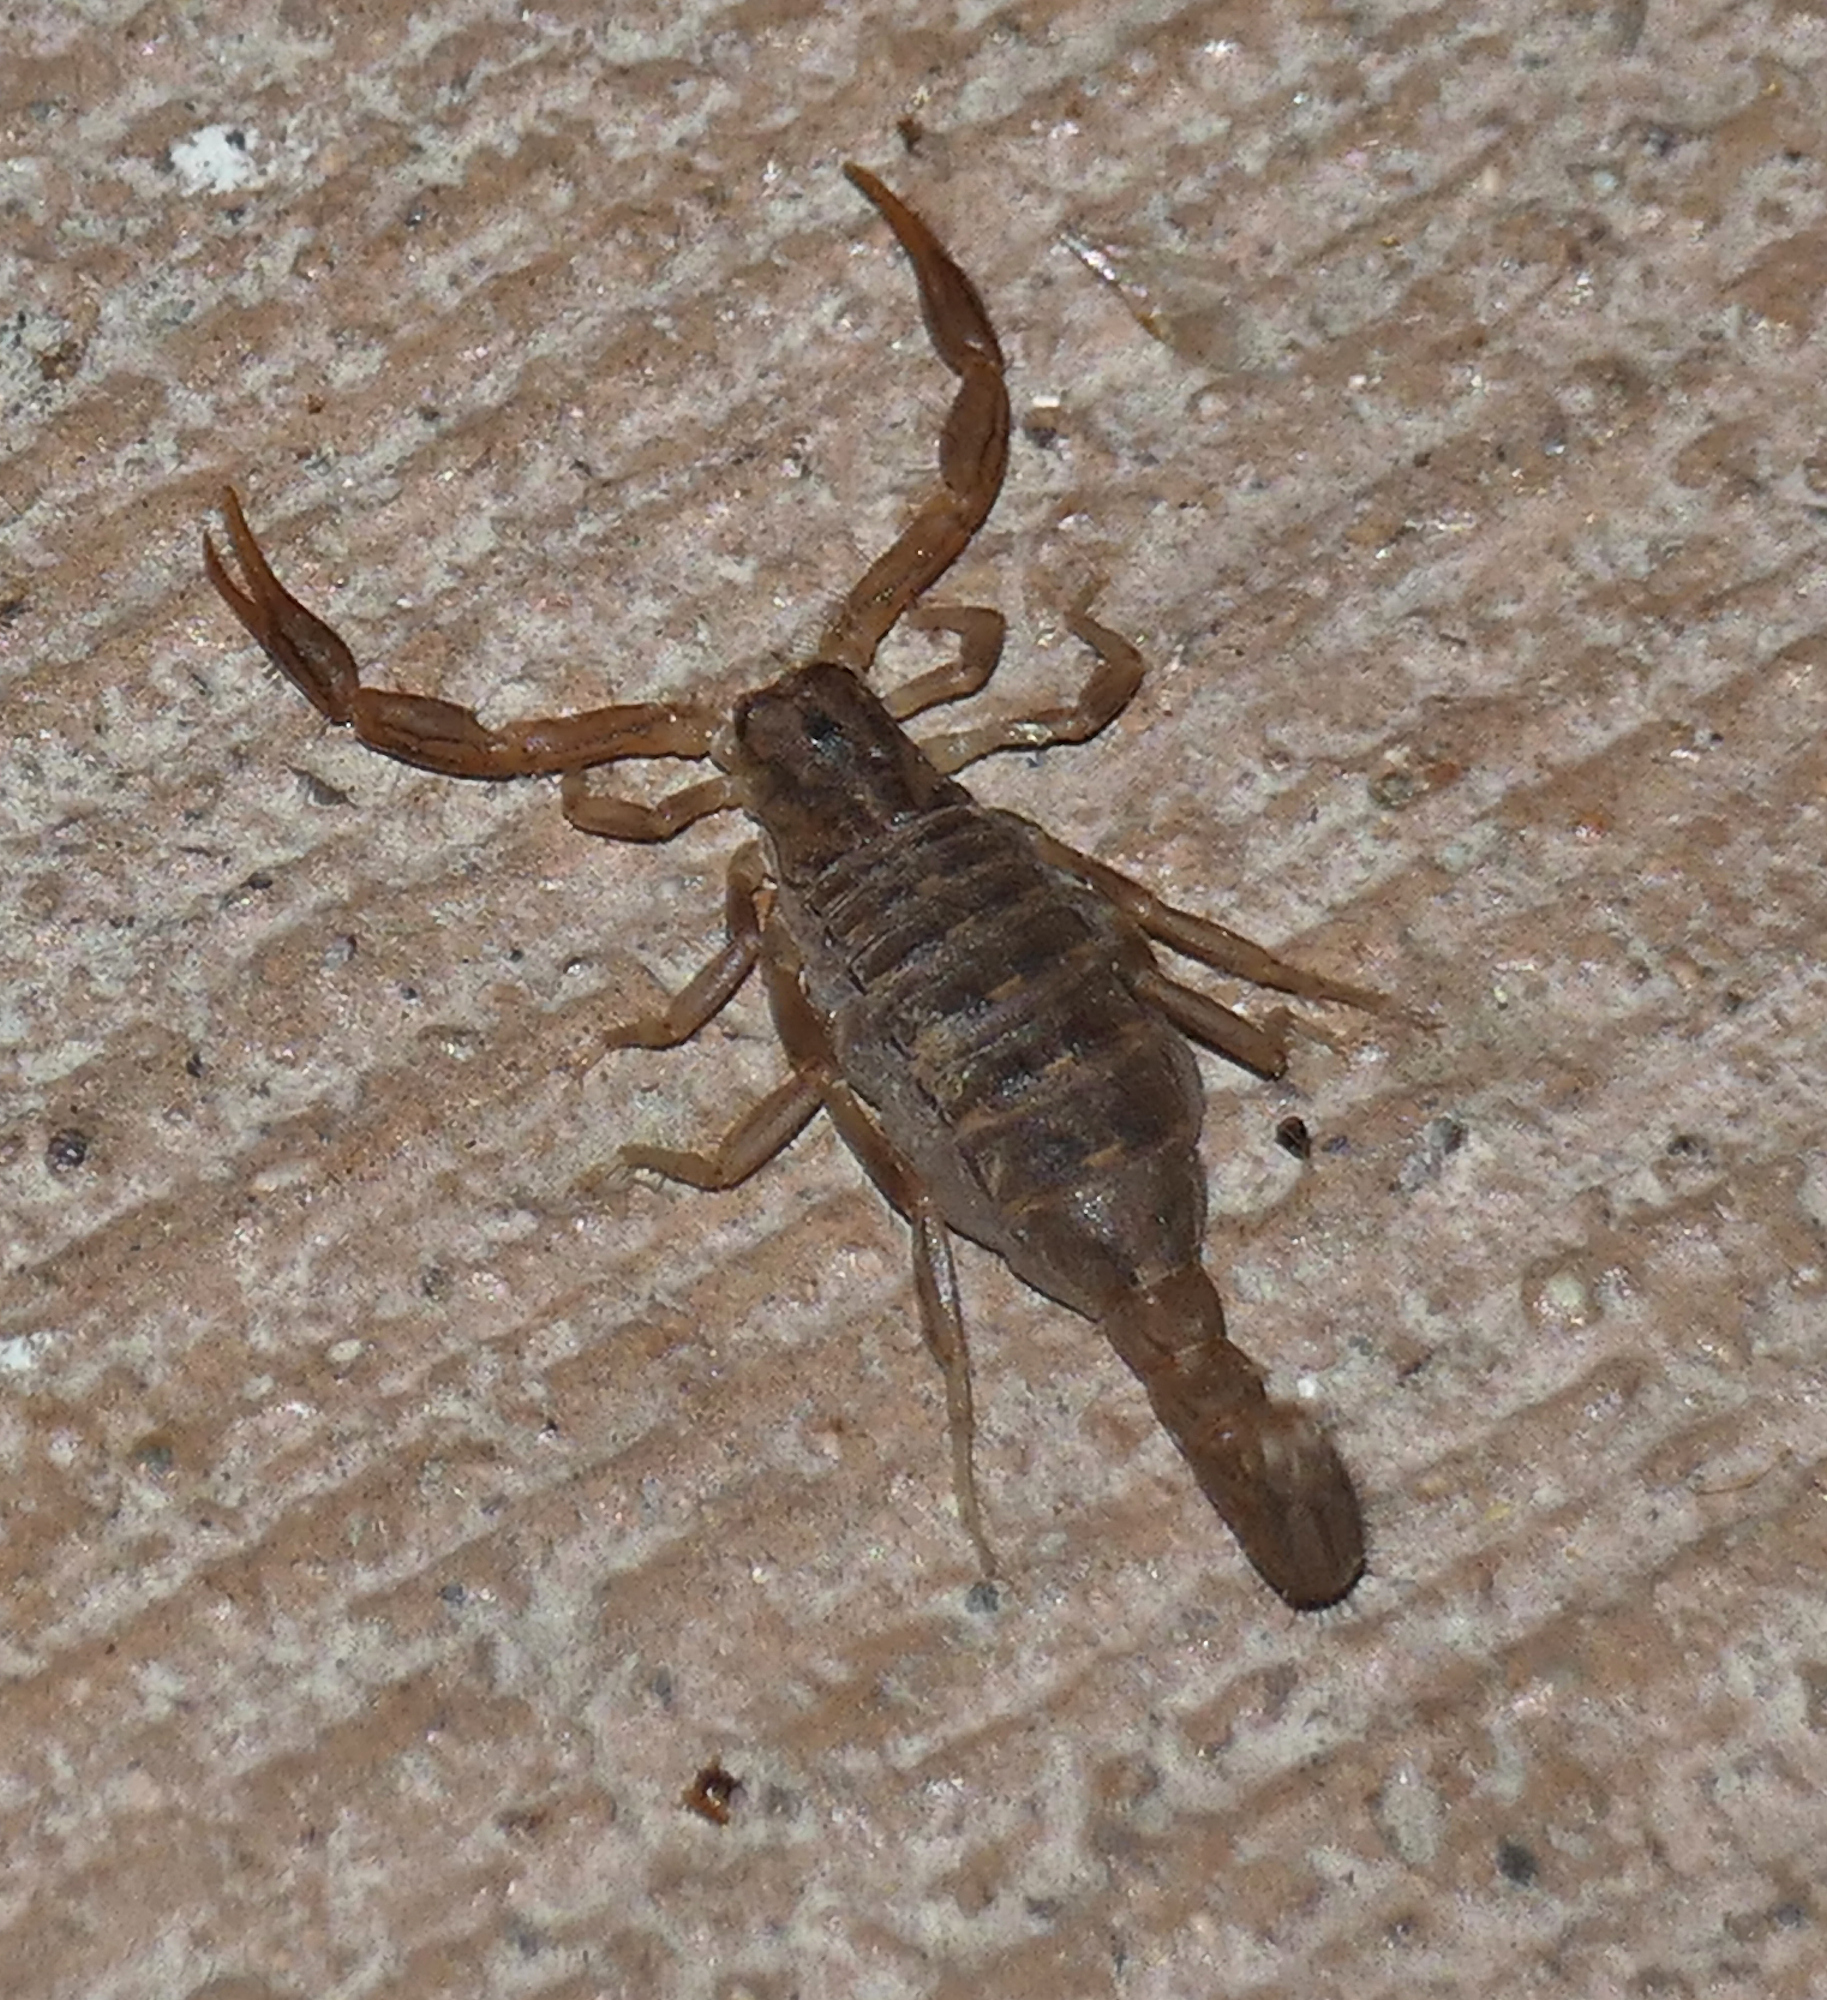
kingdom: Animalia
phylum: Arthropoda
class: Arachnida
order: Scorpiones
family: Vaejovidae
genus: Paravaejovis
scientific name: Paravaejovis spinigerus
